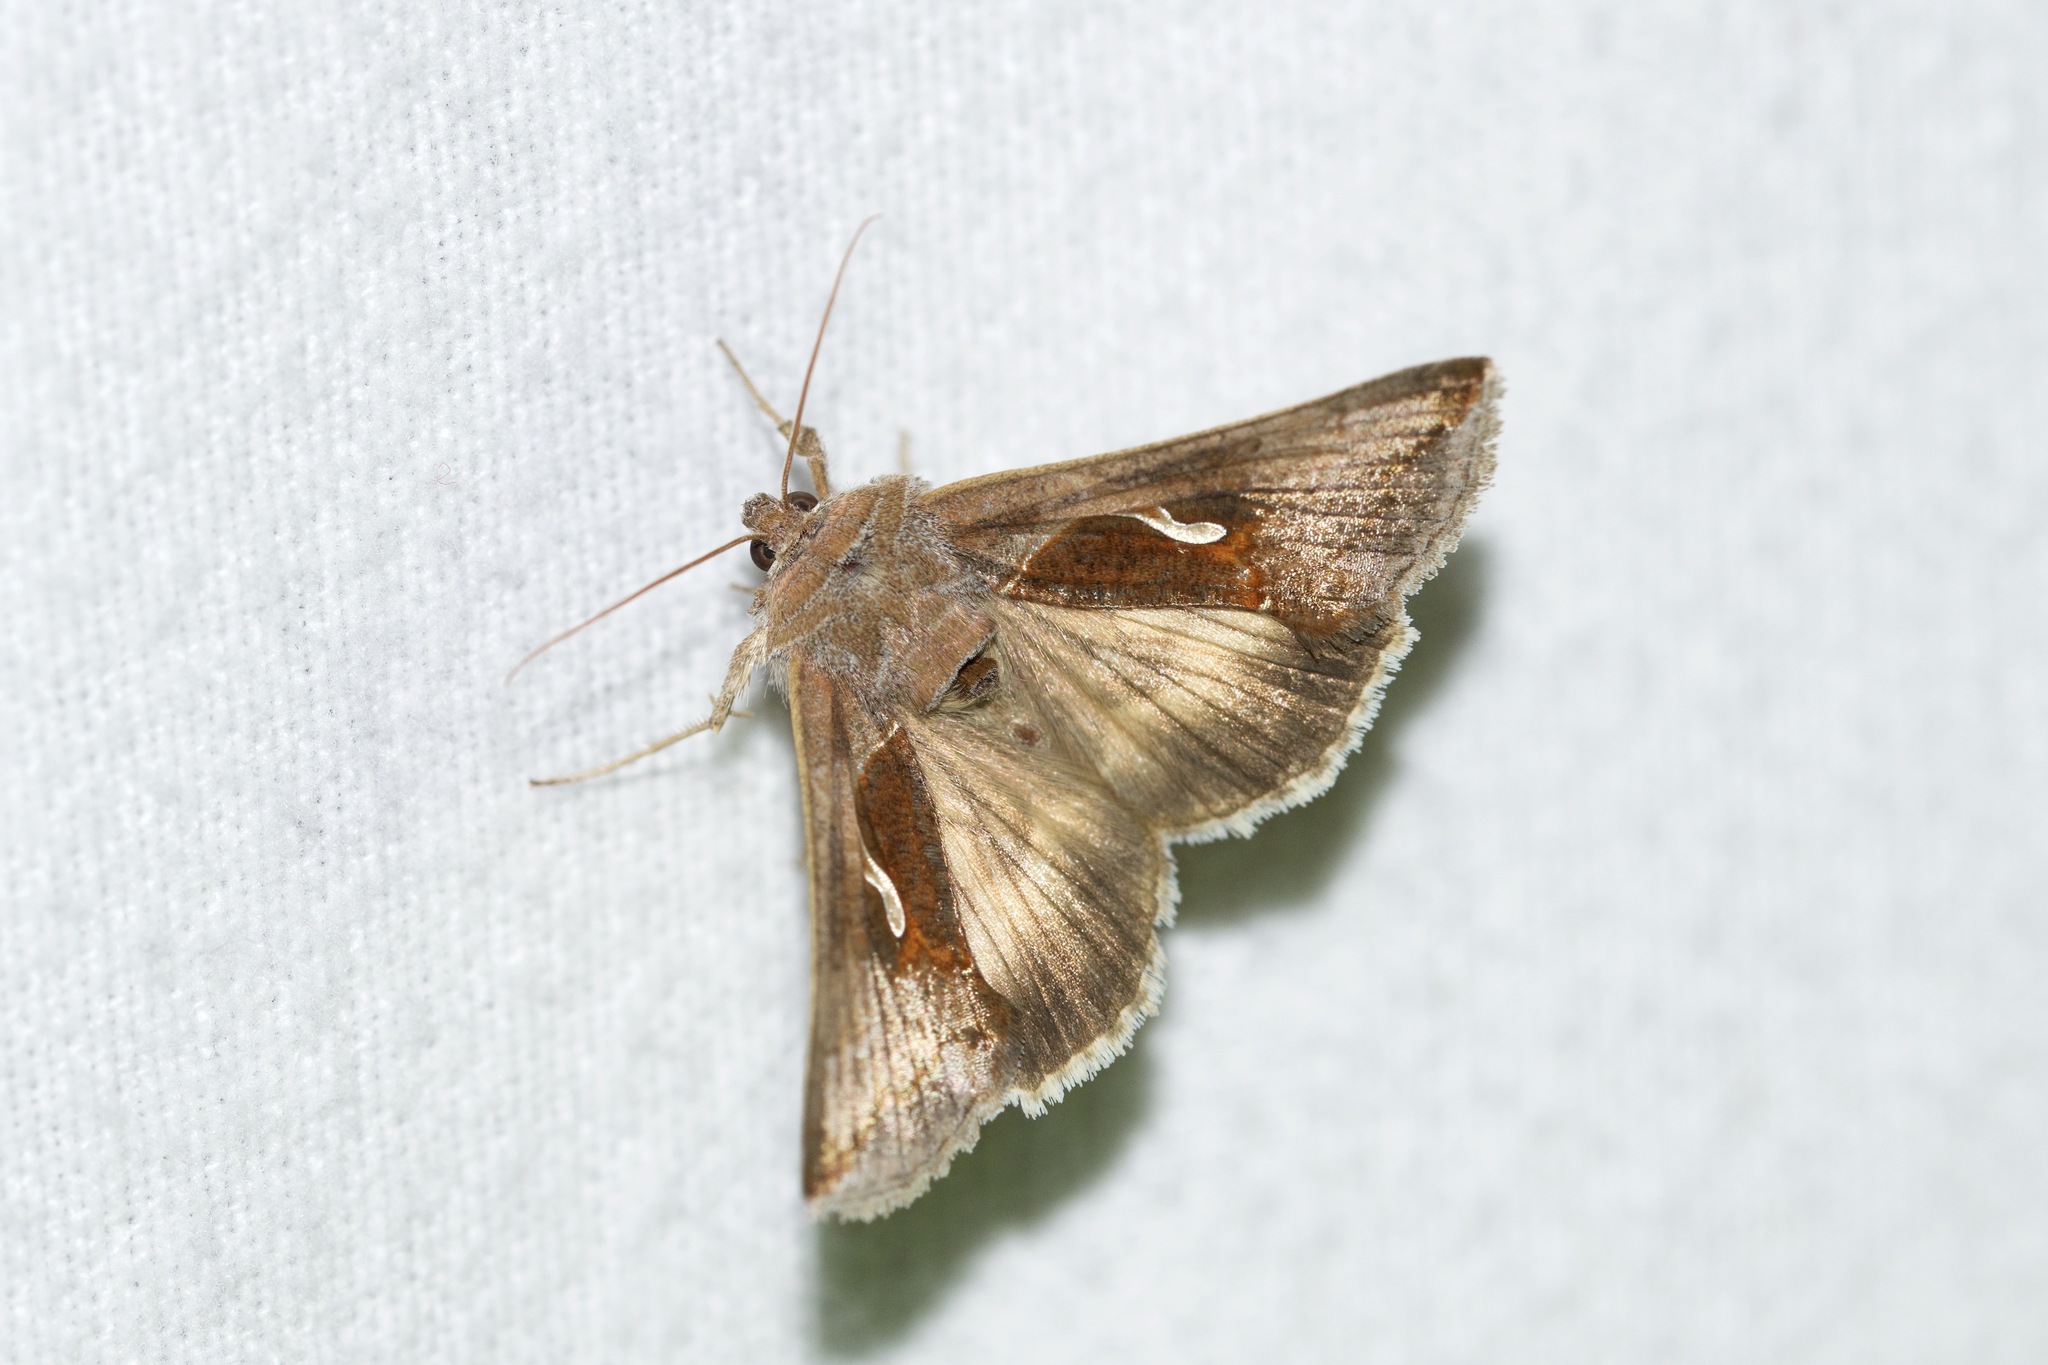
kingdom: Animalia
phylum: Arthropoda
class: Insecta
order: Lepidoptera
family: Noctuidae
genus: Anagrapha
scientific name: Anagrapha falcifera
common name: Celery looper
